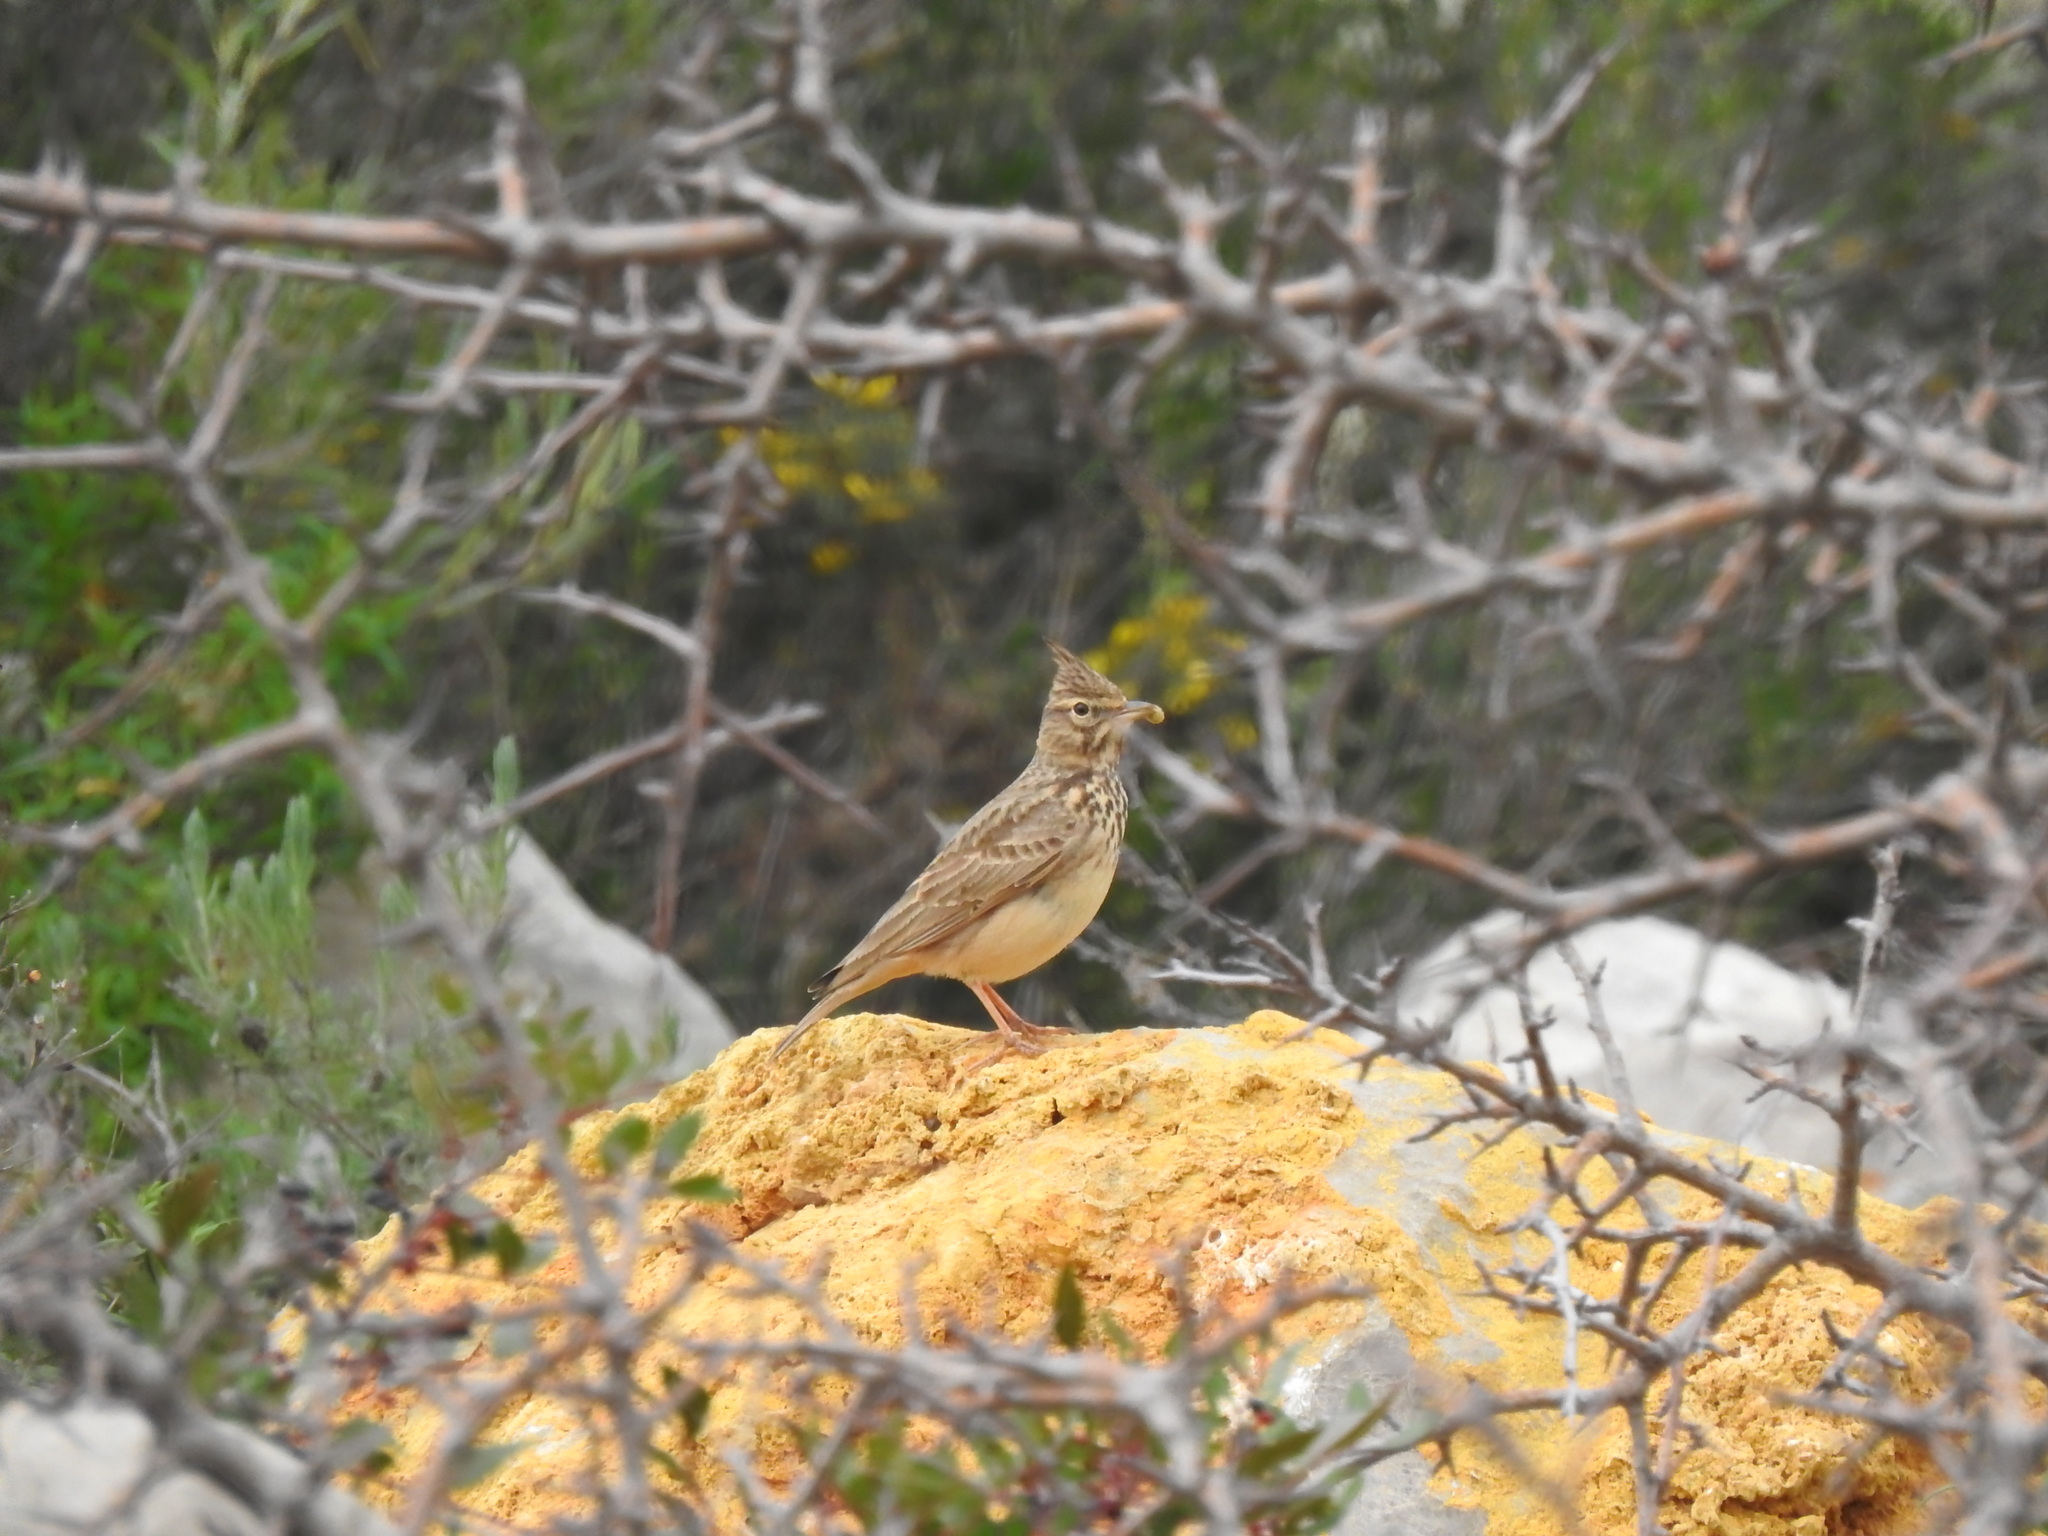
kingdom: Animalia
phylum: Chordata
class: Aves
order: Passeriformes
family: Alaudidae
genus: Galerida
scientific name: Galerida theklae
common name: Thekla lark
